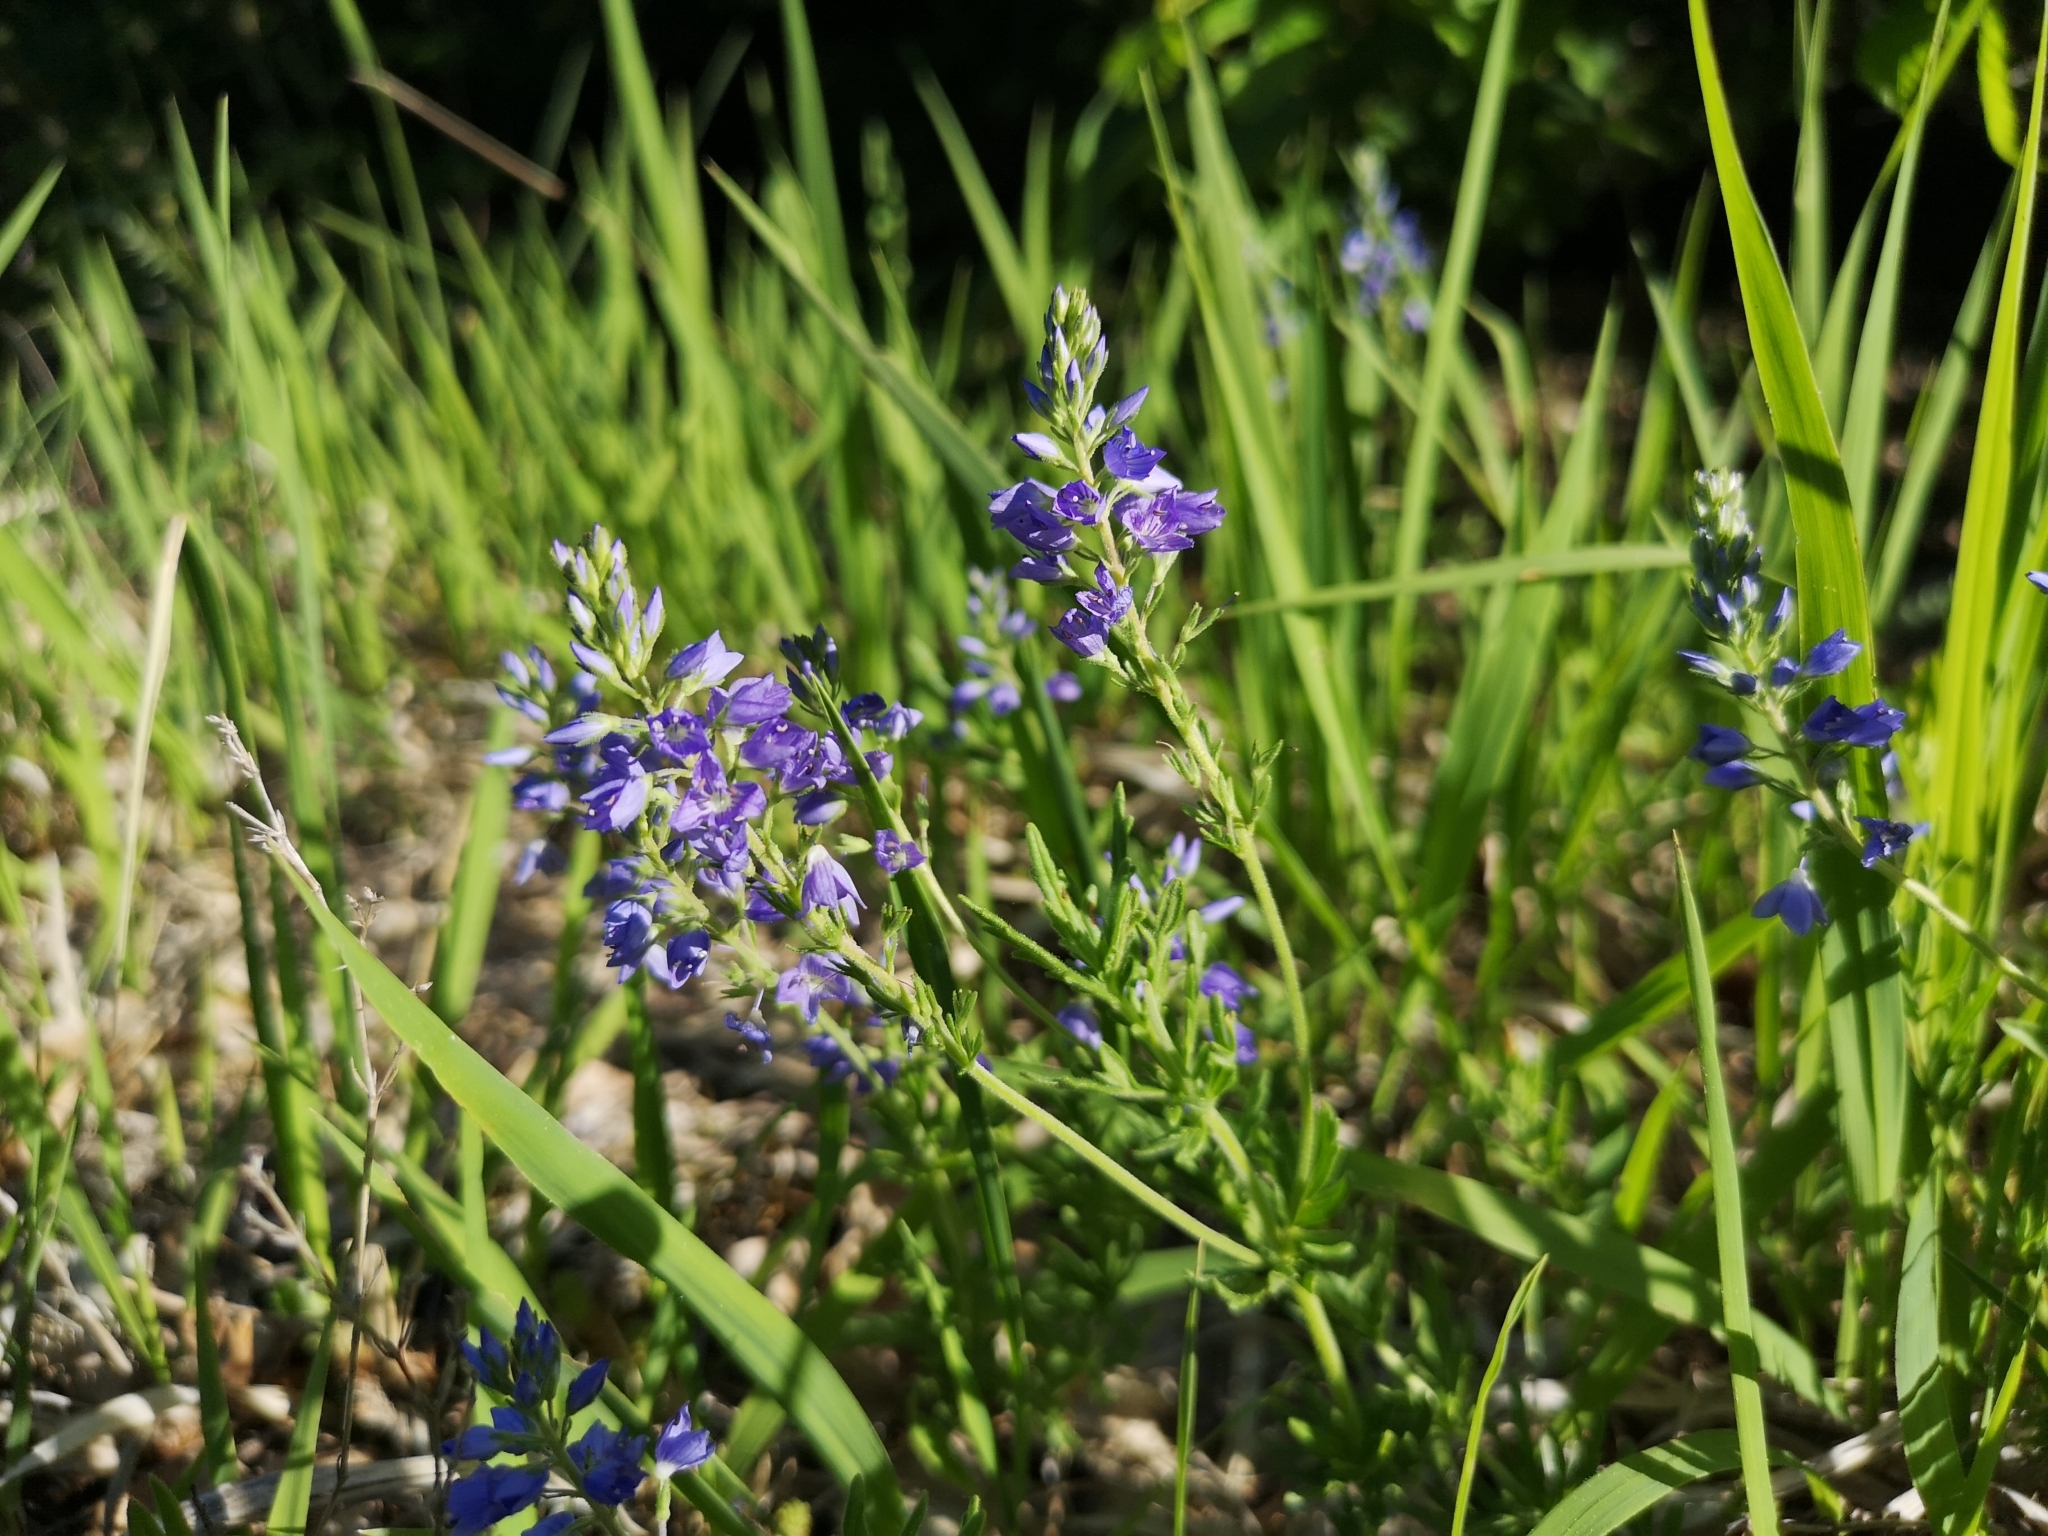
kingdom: Plantae
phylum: Tracheophyta
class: Magnoliopsida
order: Lamiales
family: Plantaginaceae
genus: Veronica
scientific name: Veronica austriaca
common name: Large speedwell
